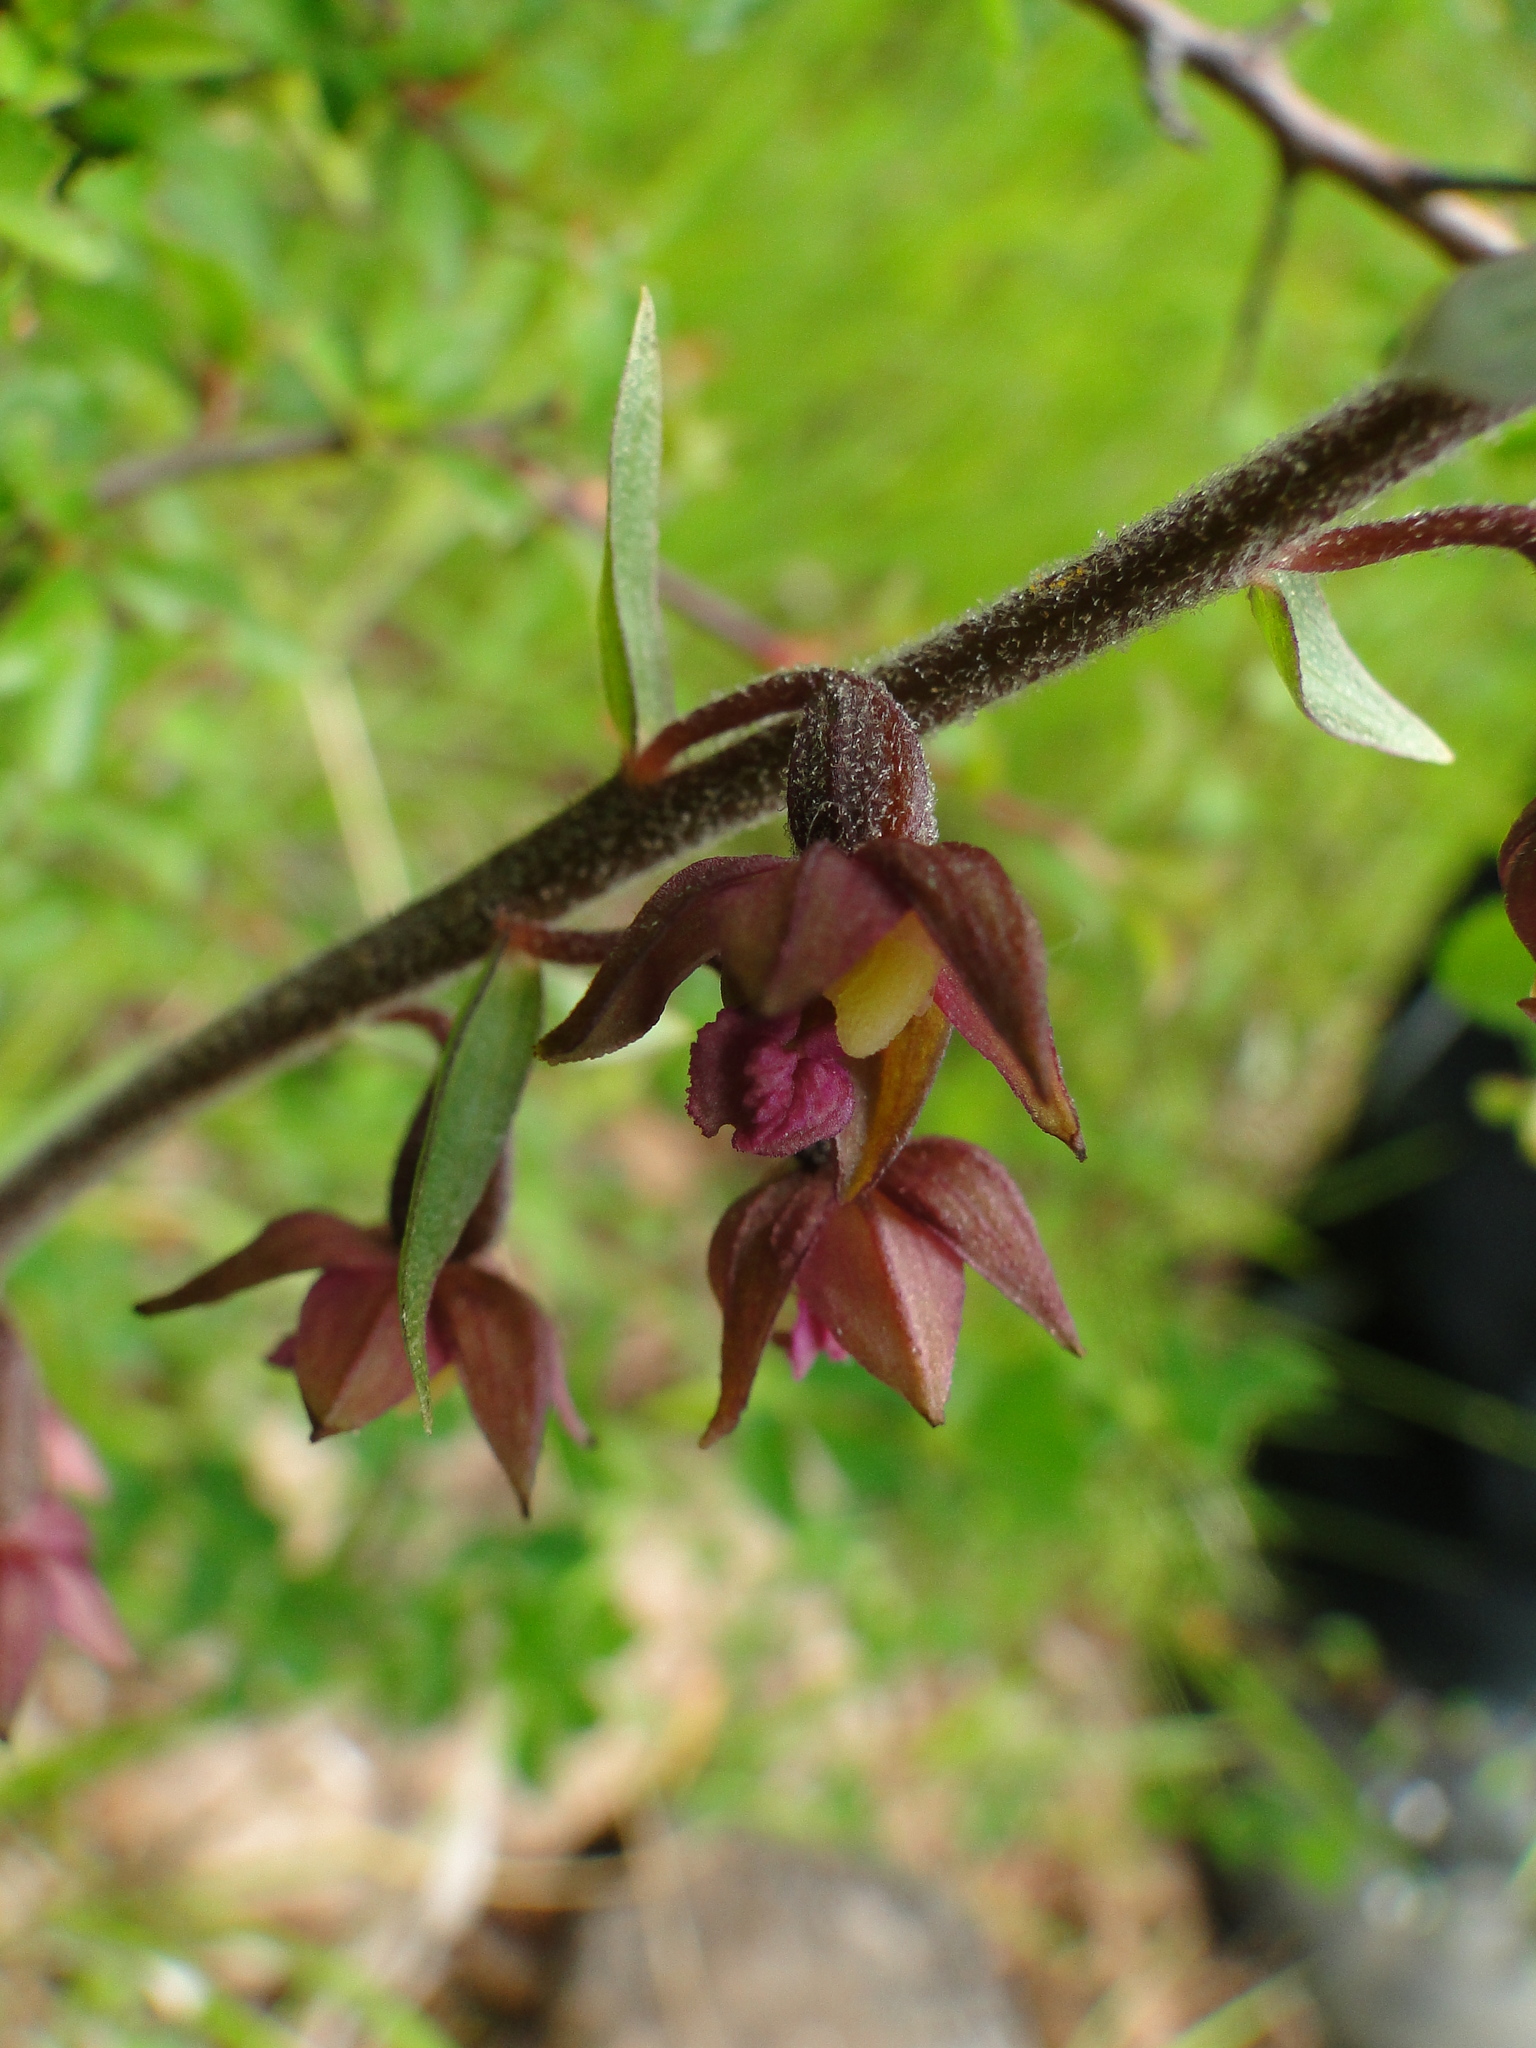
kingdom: Plantae
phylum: Tracheophyta
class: Liliopsida
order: Asparagales
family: Orchidaceae
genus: Epipactis
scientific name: Epipactis atrorubens
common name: Dark-red helleborine
